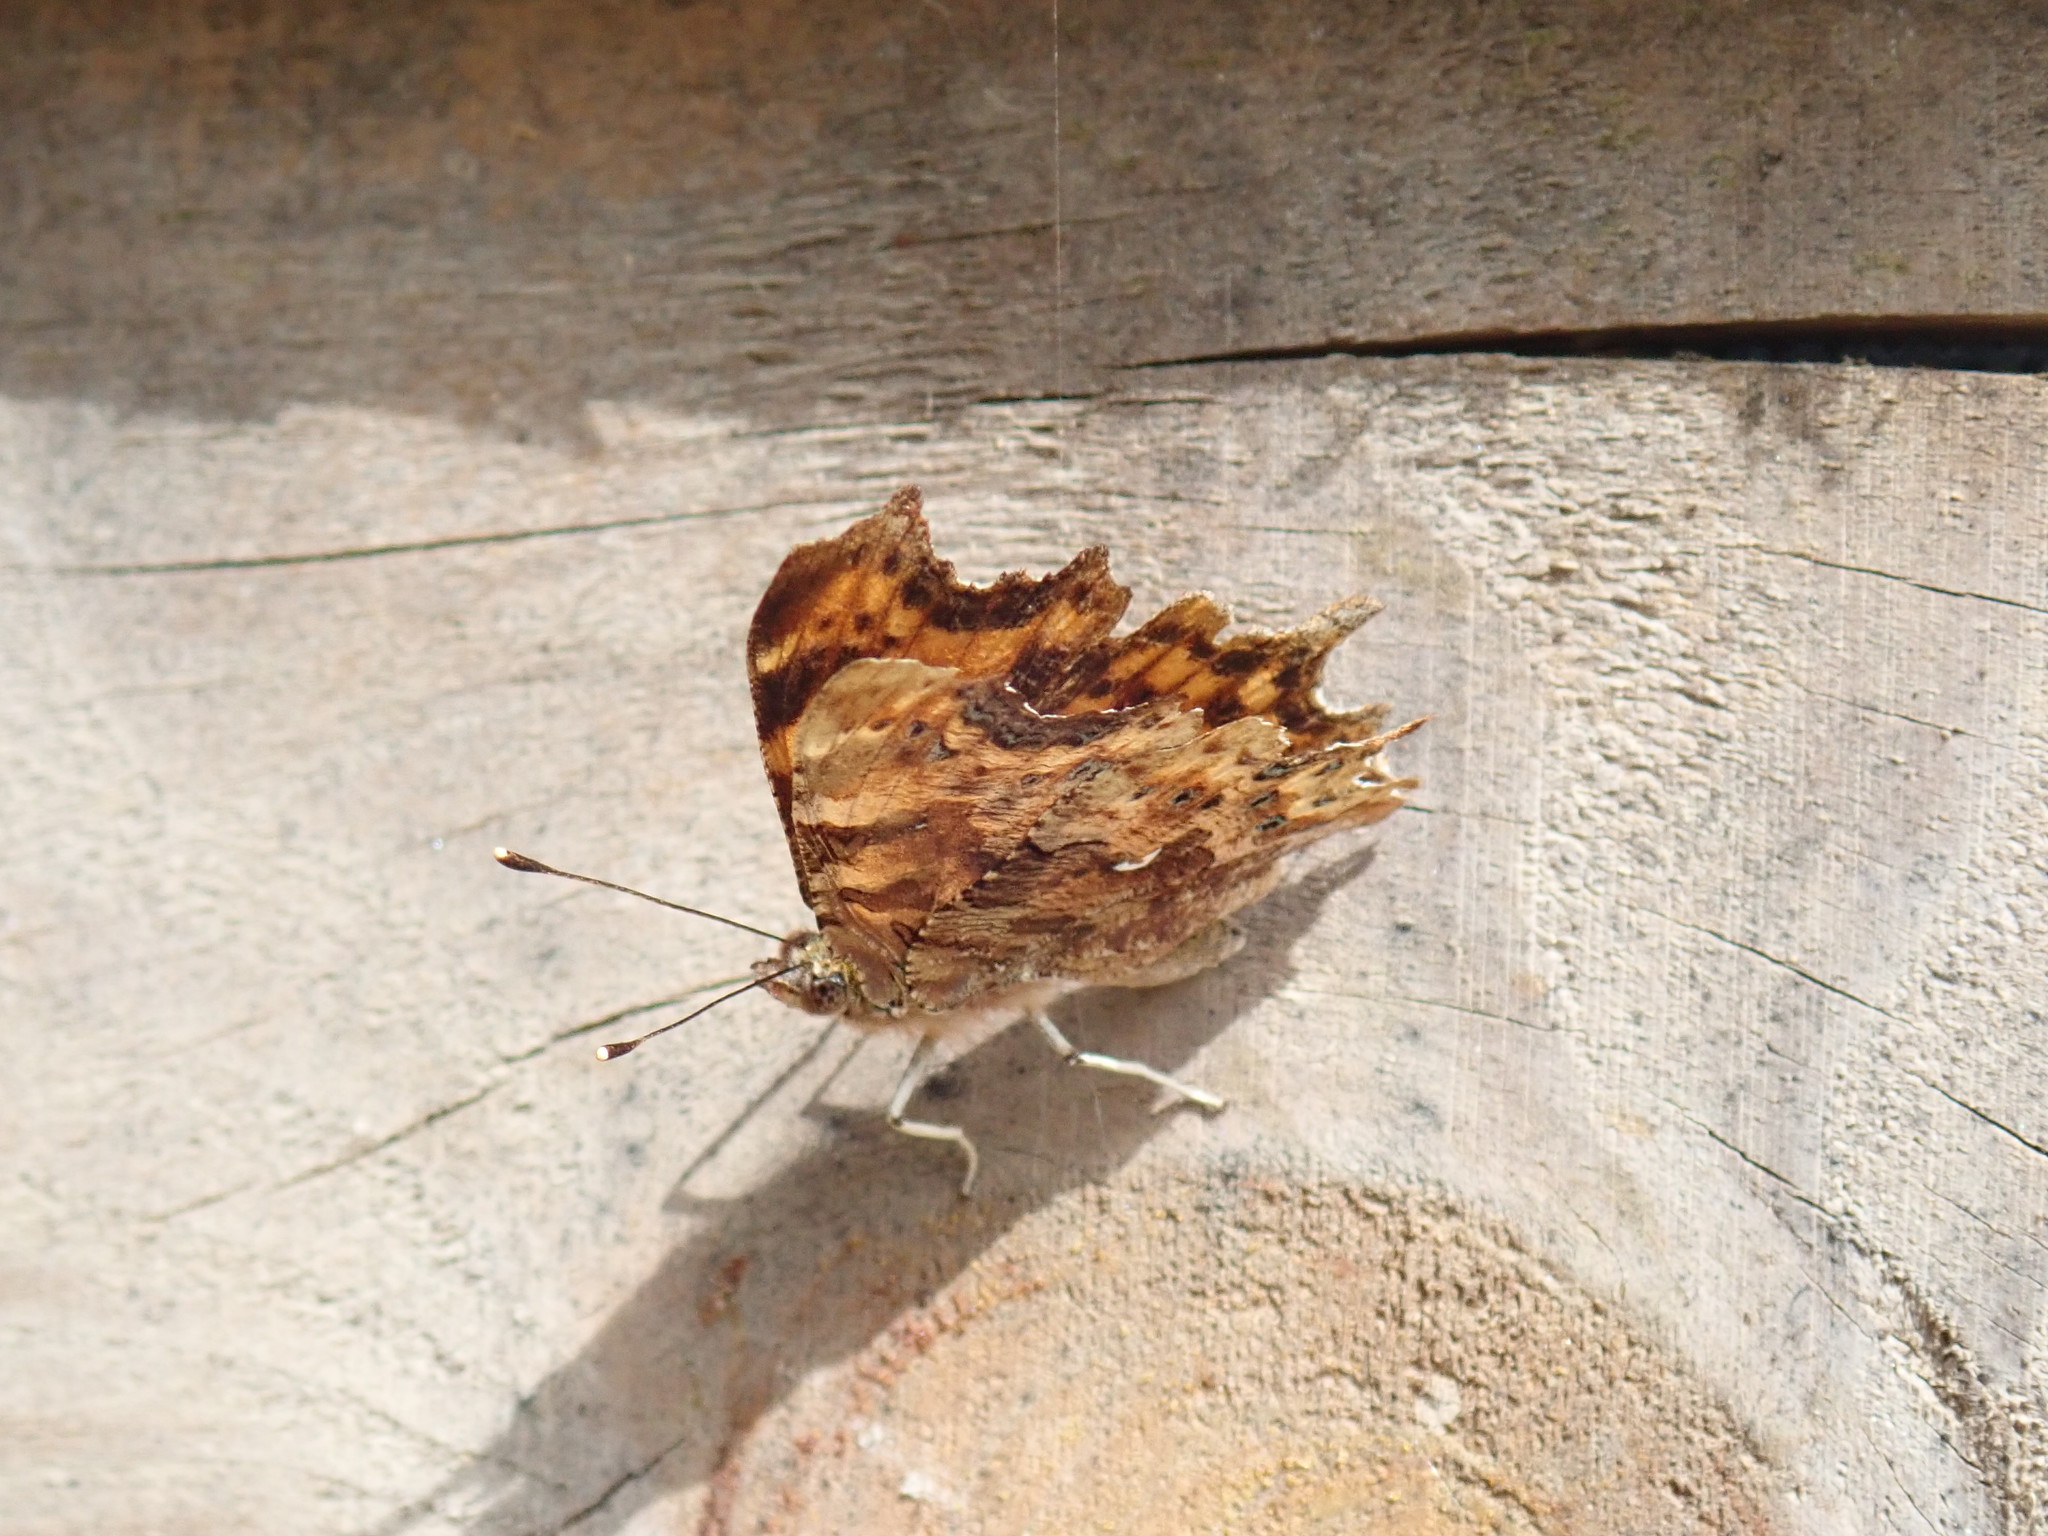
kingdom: Animalia
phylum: Arthropoda
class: Insecta
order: Lepidoptera
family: Nymphalidae
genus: Polygonia
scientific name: Polygonia c-album
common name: Comma
